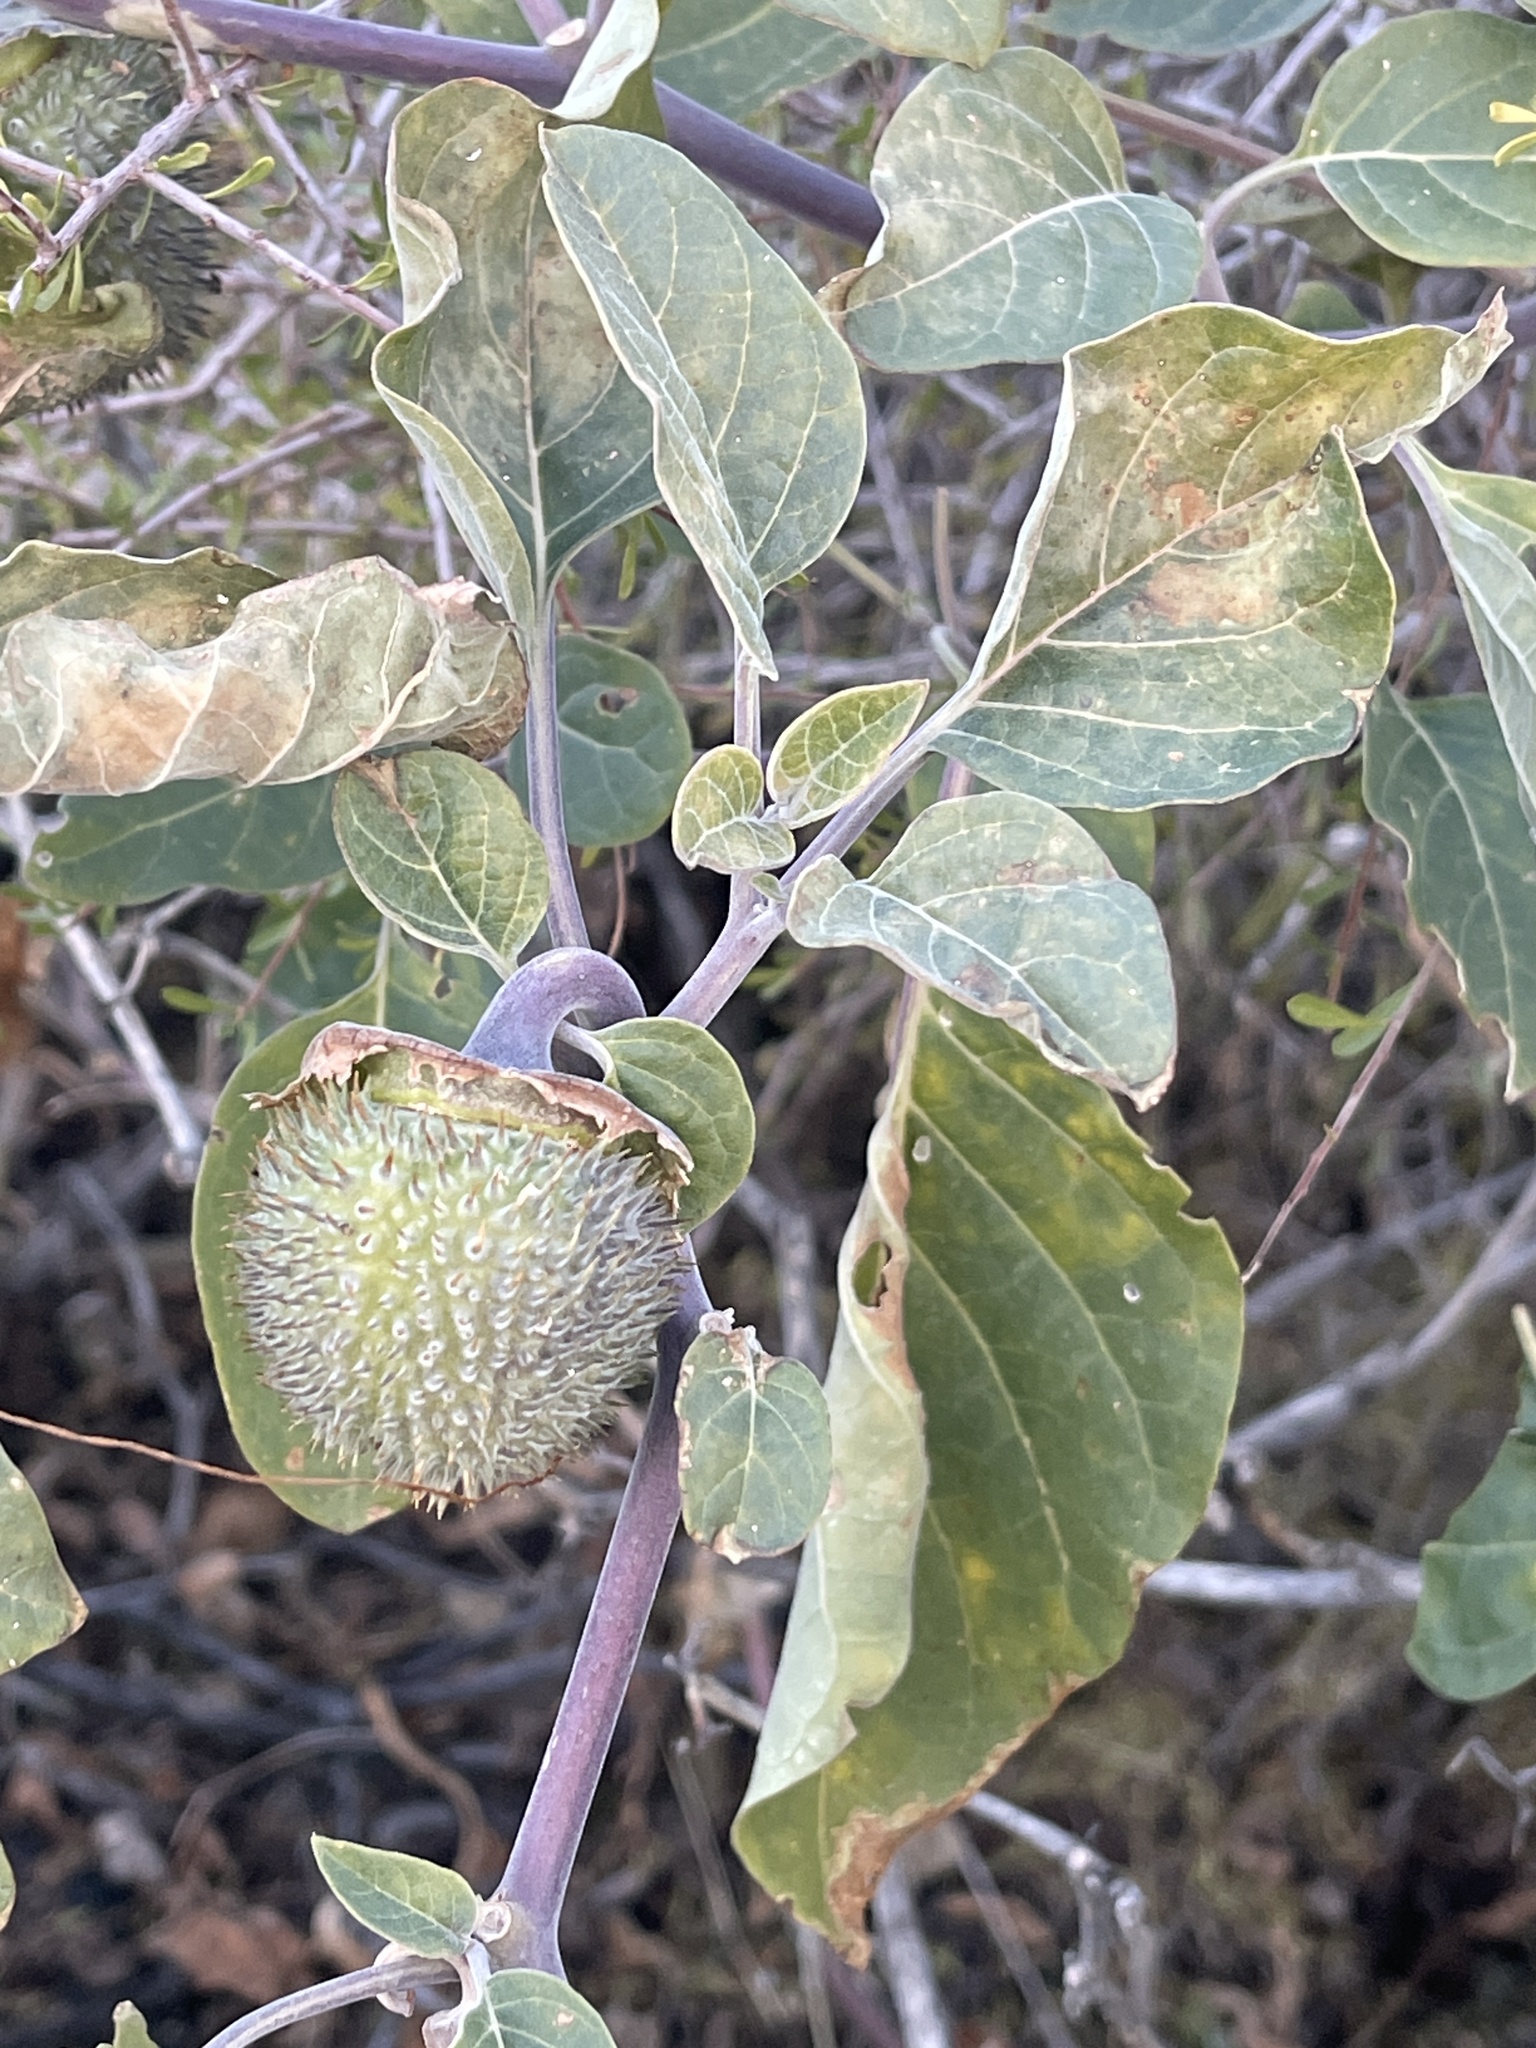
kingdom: Plantae
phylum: Tracheophyta
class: Magnoliopsida
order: Solanales
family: Solanaceae
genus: Datura
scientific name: Datura wrightii
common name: Sacred thorn-apple
